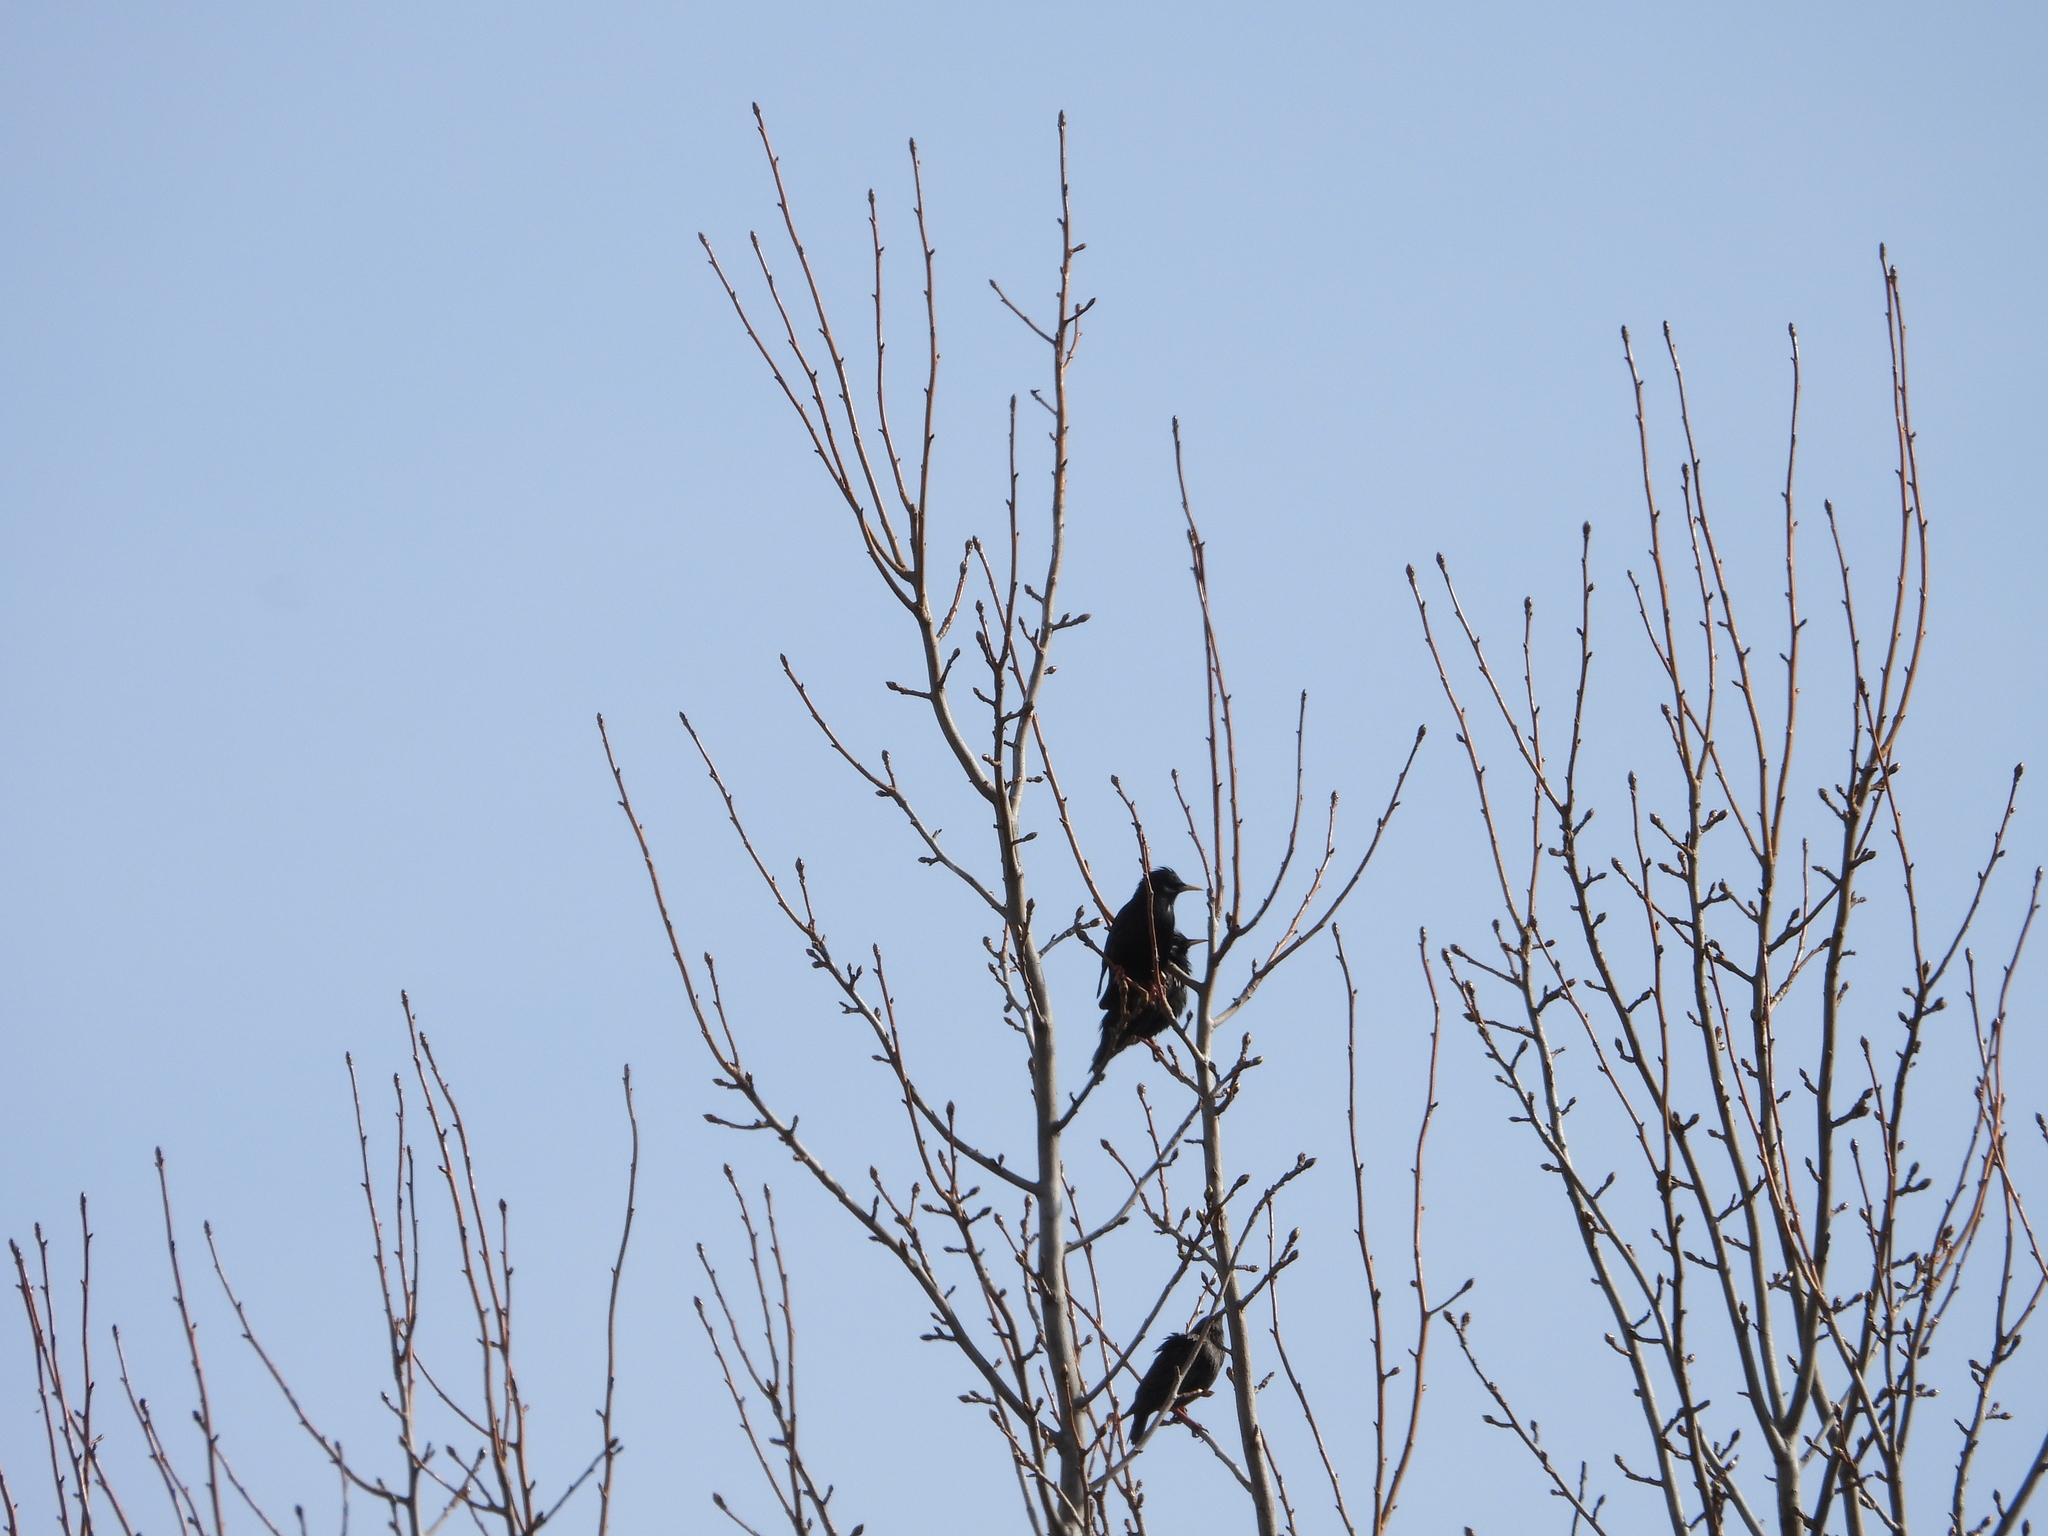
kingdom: Animalia
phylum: Chordata
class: Aves
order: Passeriformes
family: Sturnidae
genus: Sturnus
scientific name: Sturnus unicolor
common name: Spotless starling
